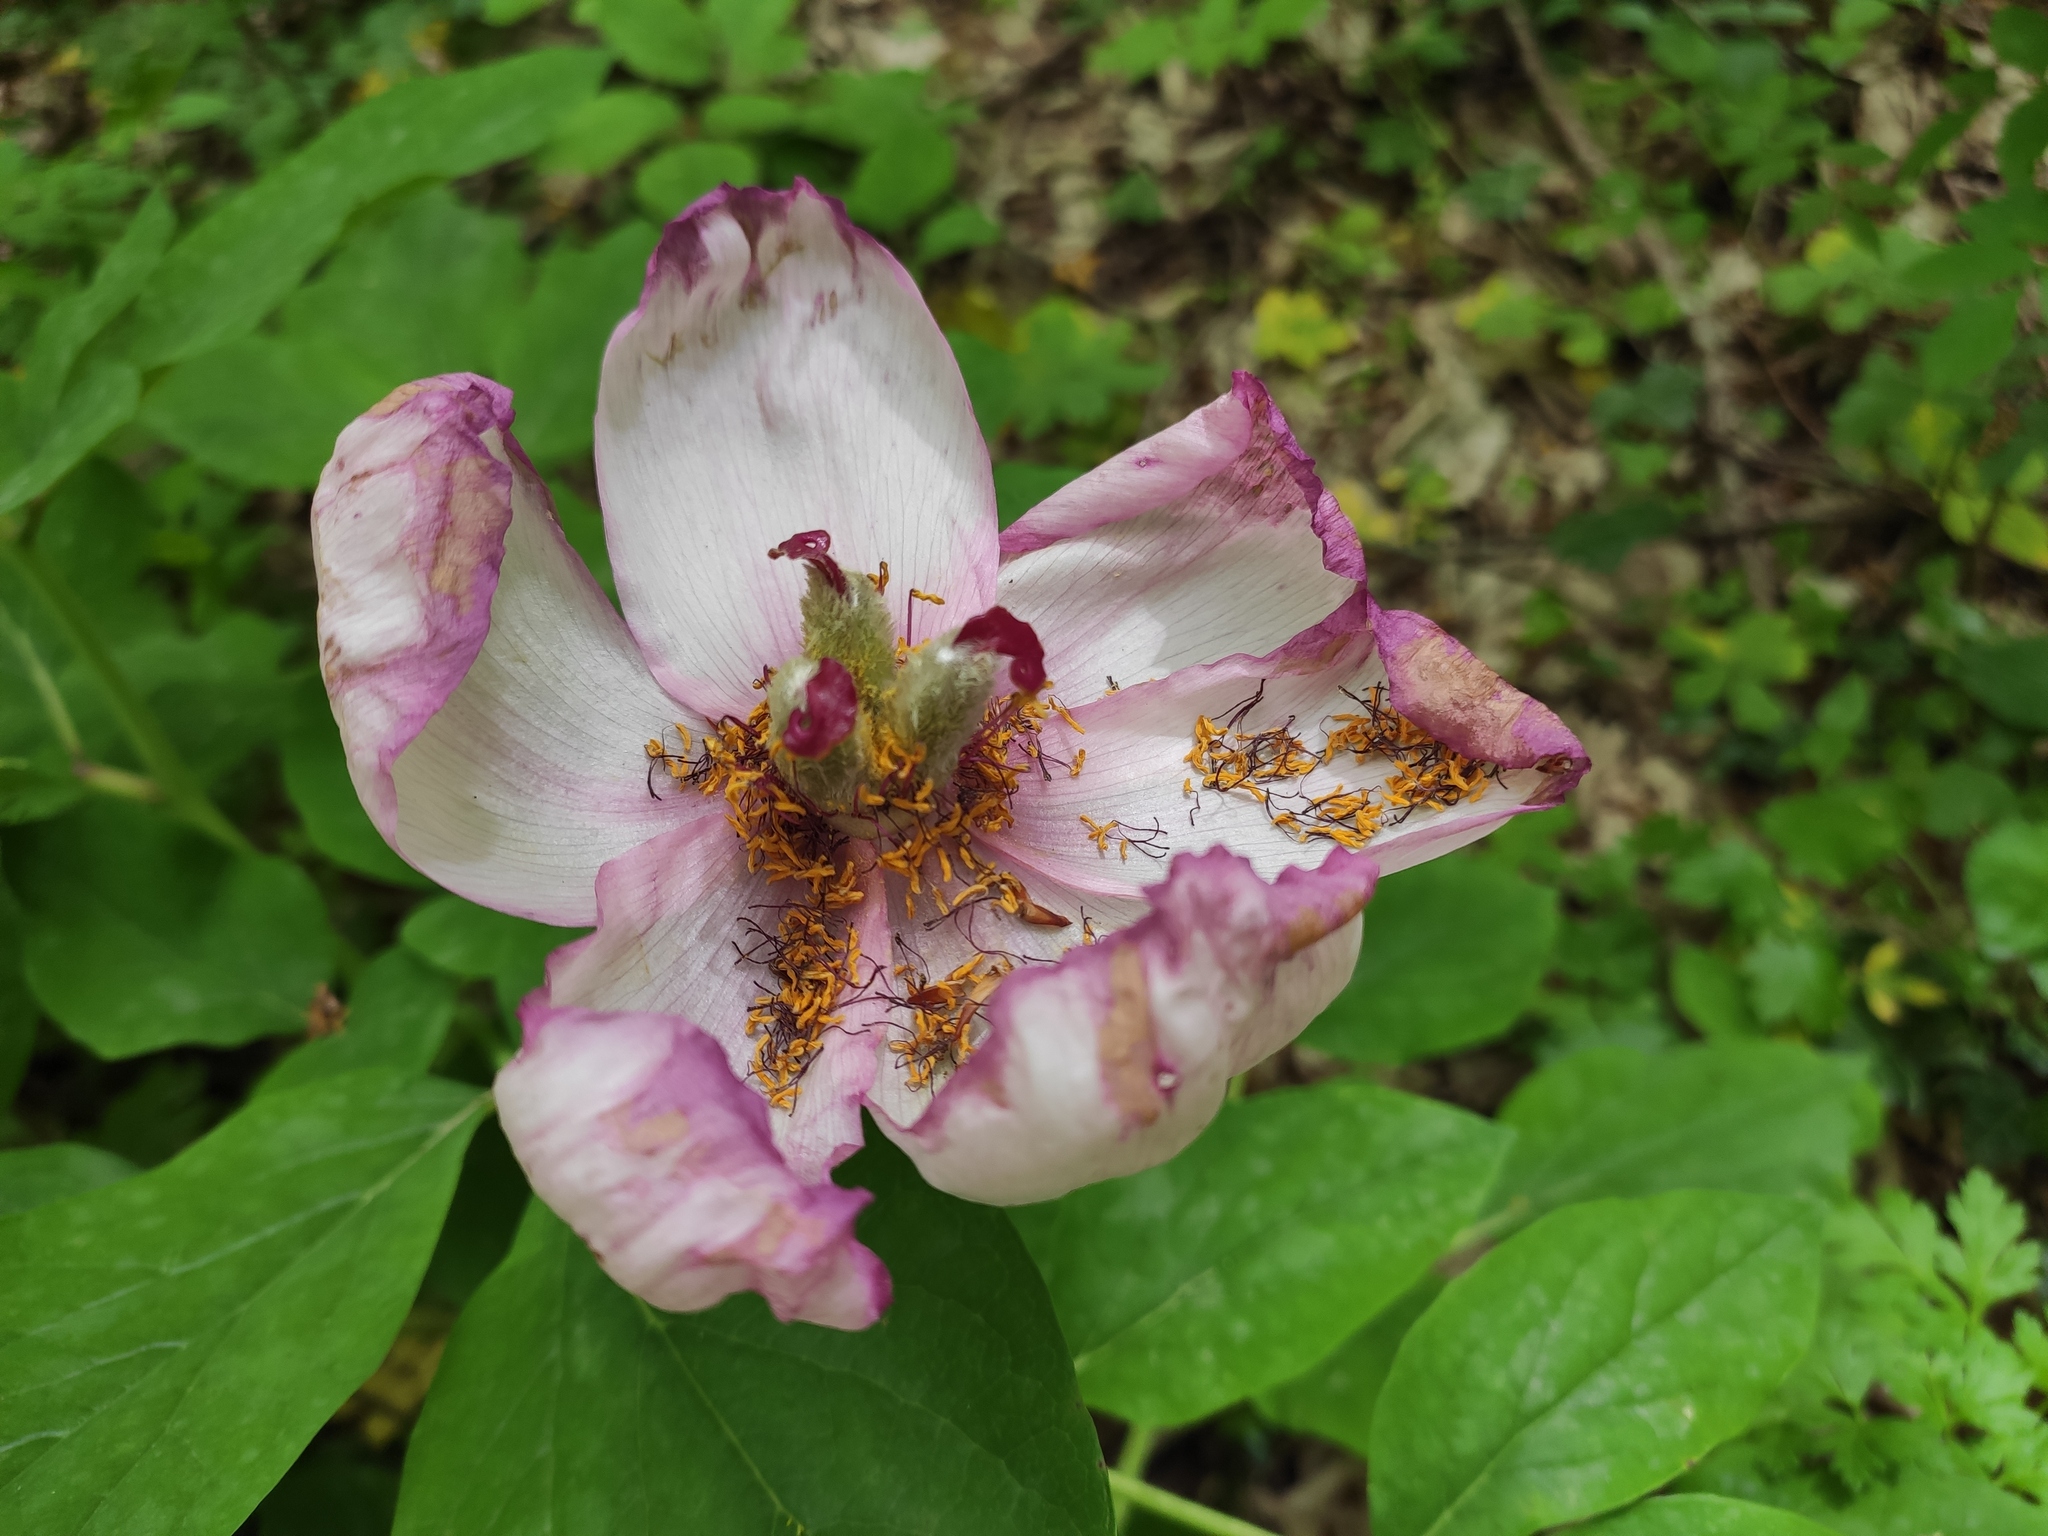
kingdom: Plantae
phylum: Tracheophyta
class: Magnoliopsida
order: Saxifragales
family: Paeoniaceae
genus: Paeonia
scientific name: Paeonia caucasica
